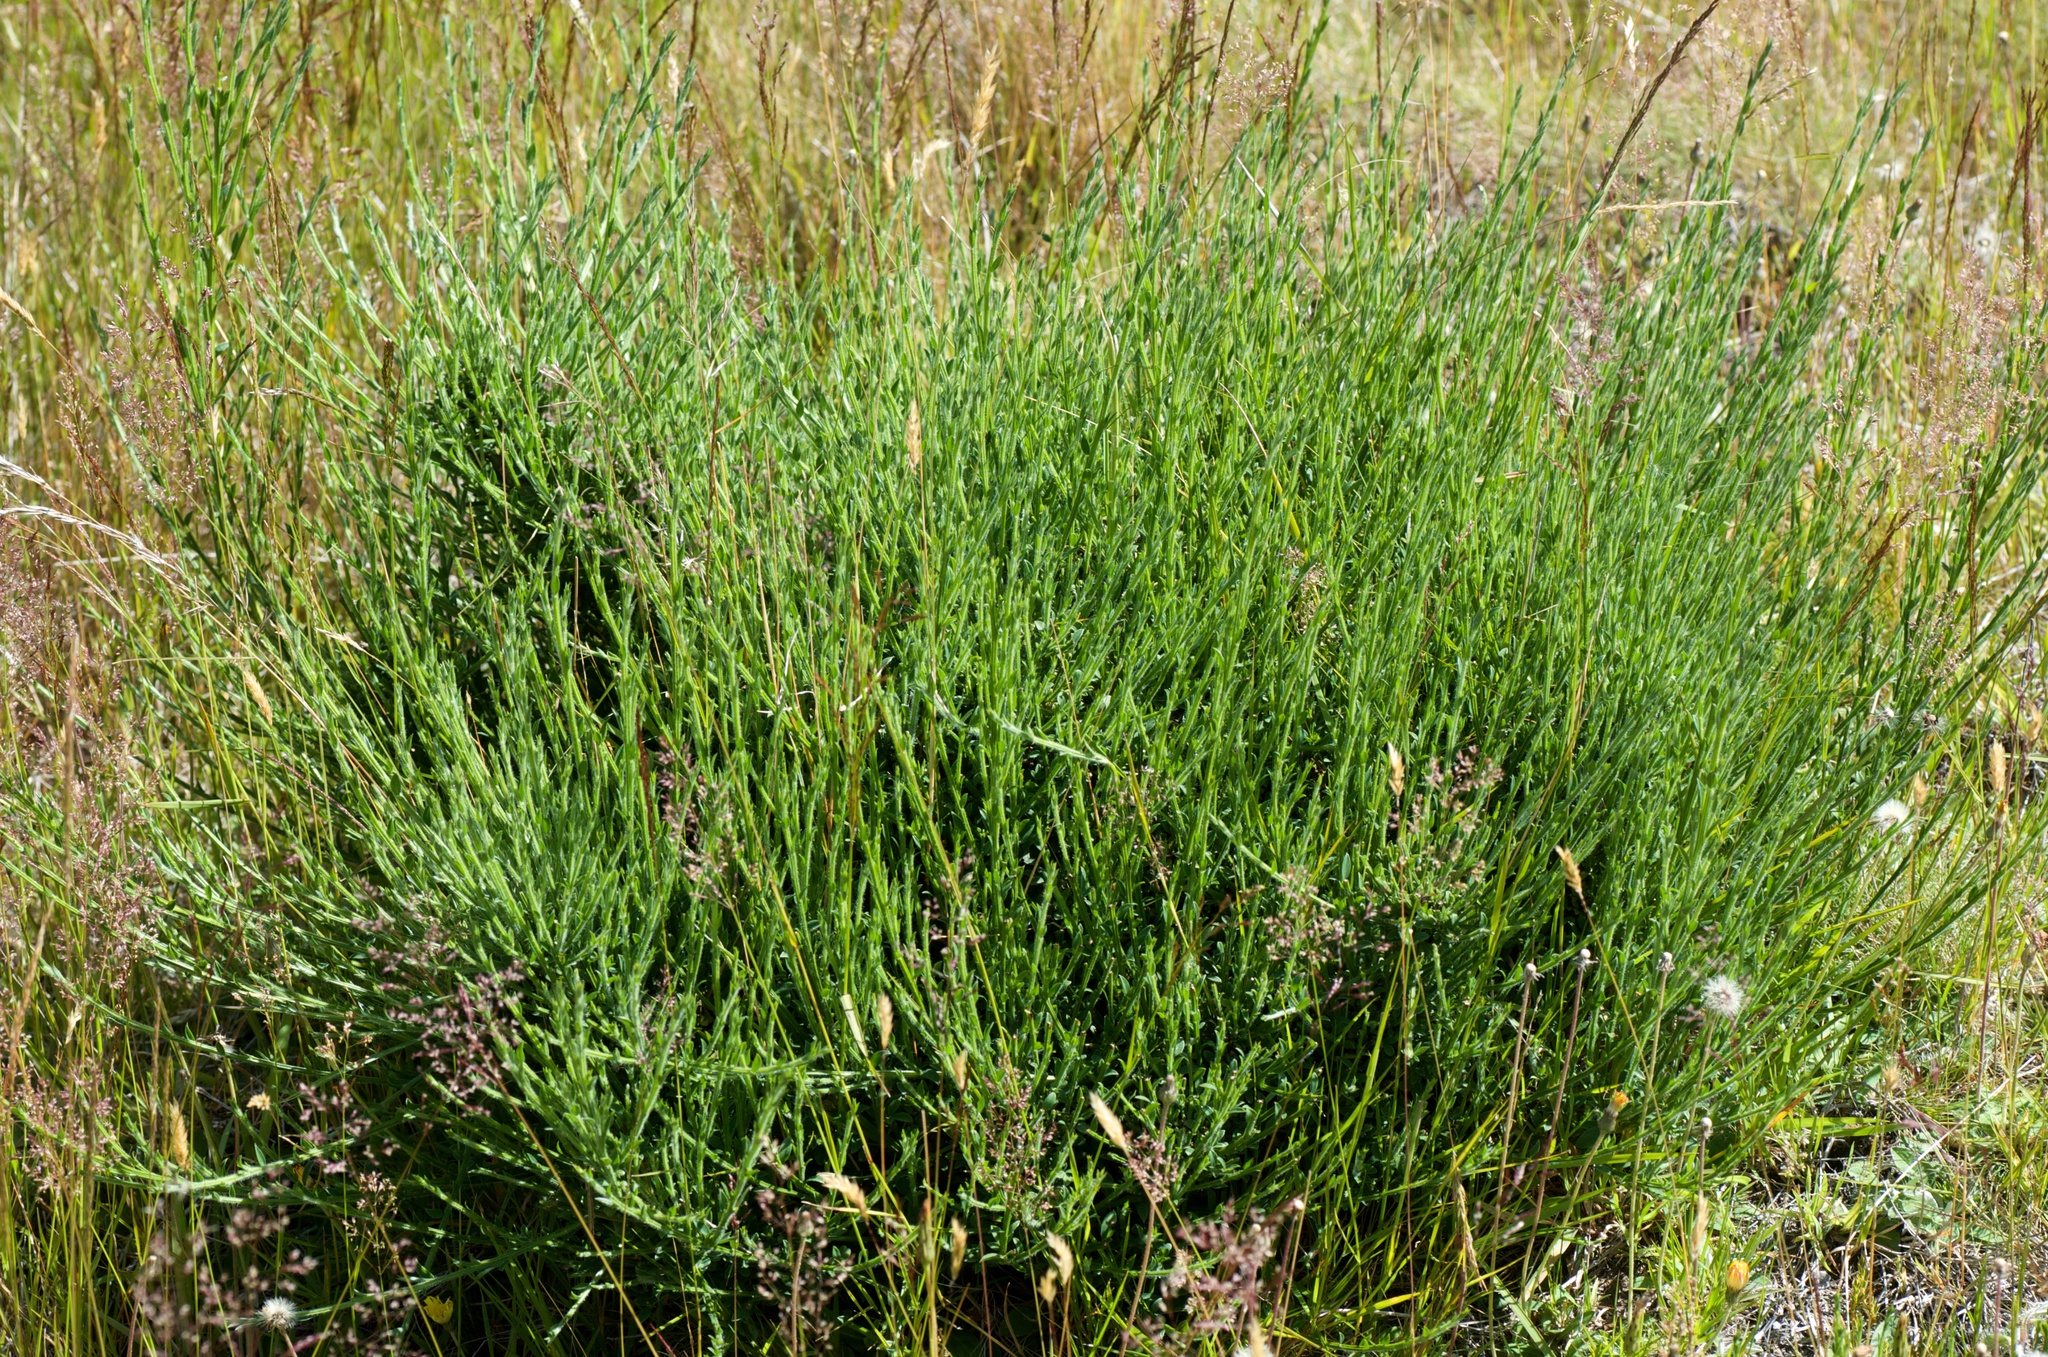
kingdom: Plantae
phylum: Tracheophyta
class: Magnoliopsida
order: Fabales
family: Fabaceae
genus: Cytisus
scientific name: Cytisus scoparius
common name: Scotch broom
